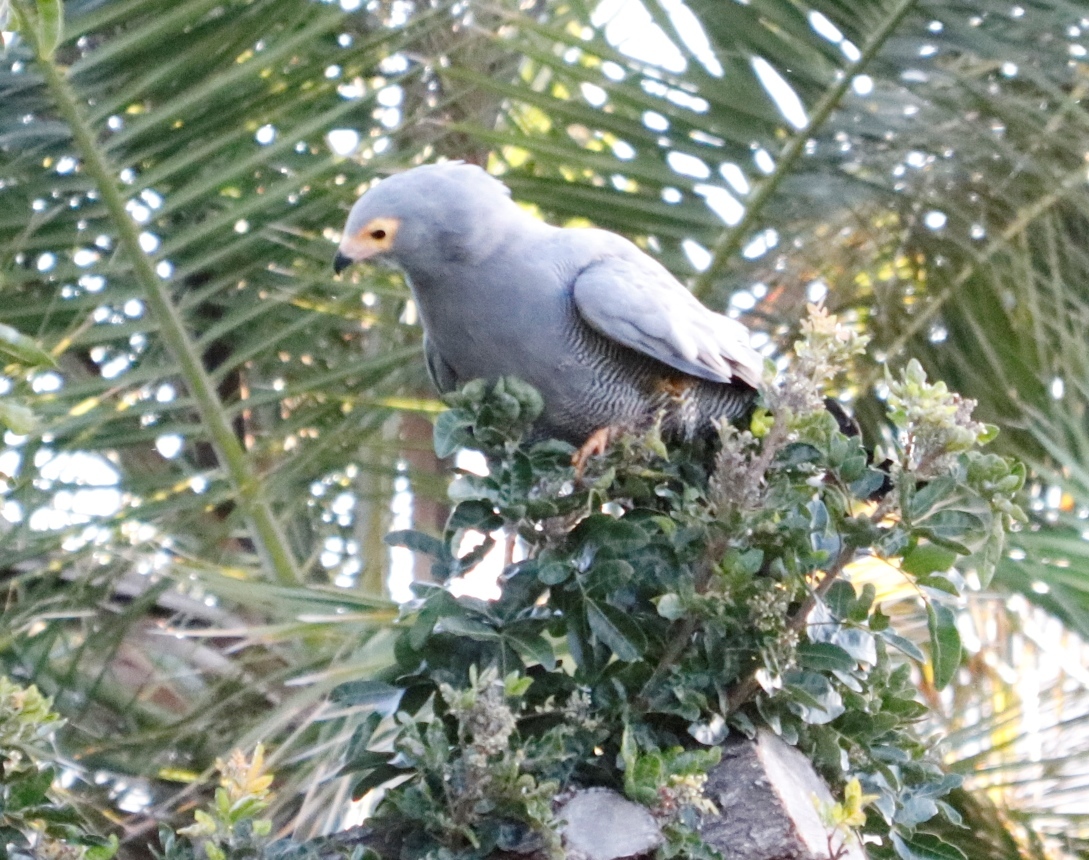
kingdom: Animalia
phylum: Chordata
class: Aves
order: Accipitriformes
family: Accipitridae
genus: Polyboroides
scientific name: Polyboroides typus
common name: African harrier-hawk
